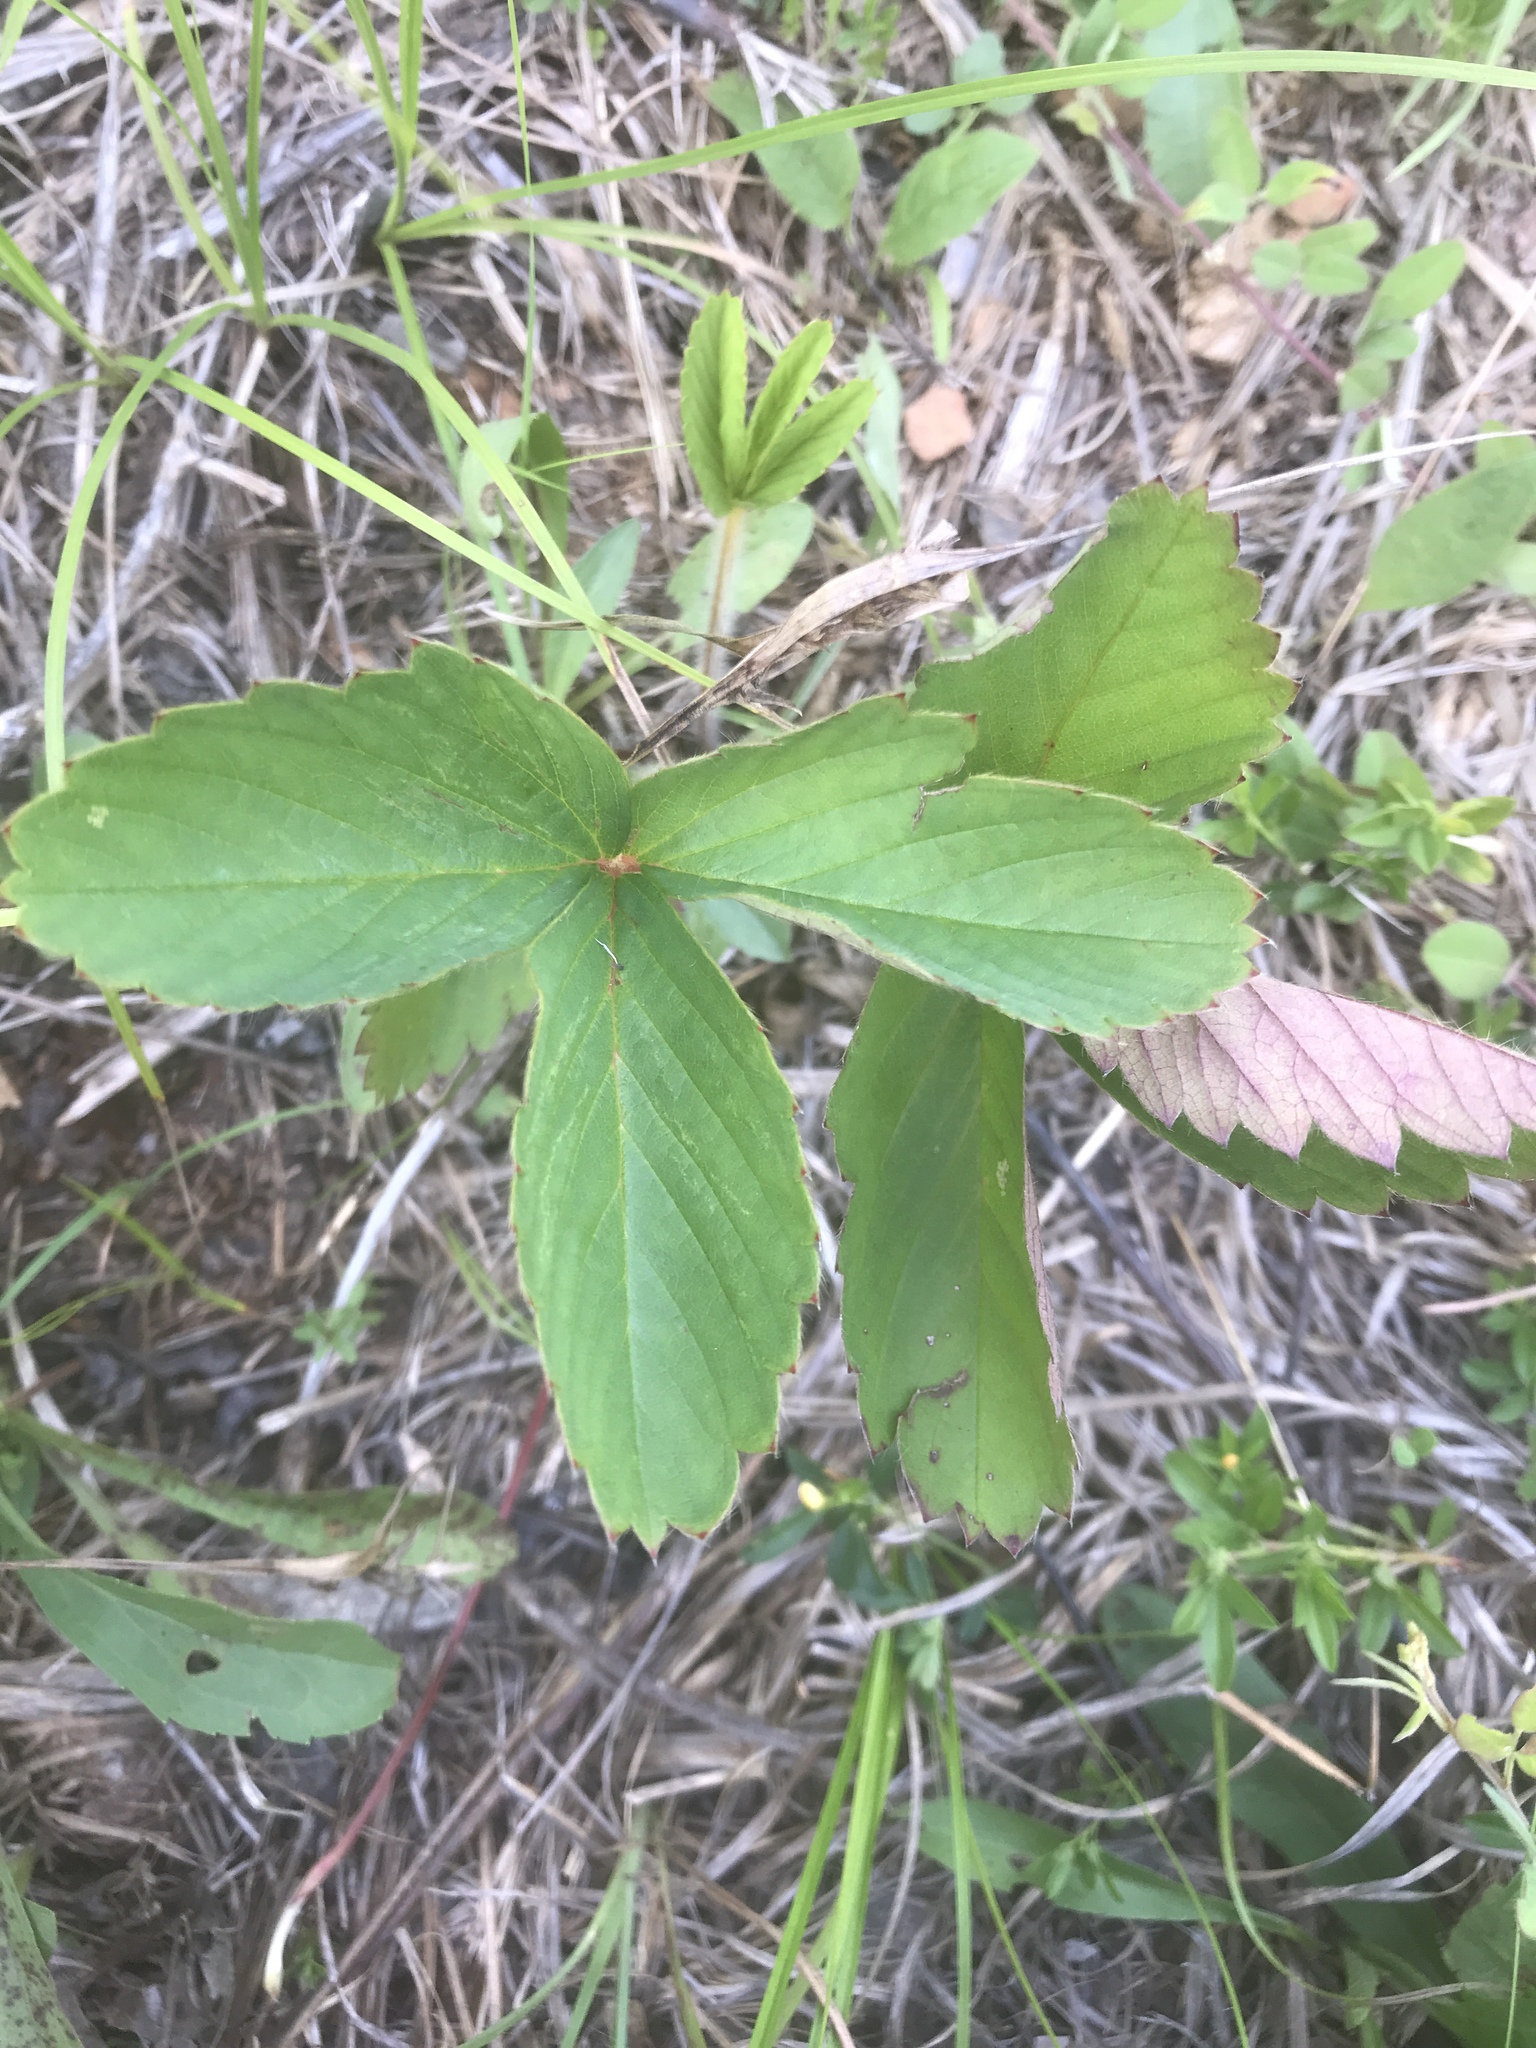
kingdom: Plantae
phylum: Tracheophyta
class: Magnoliopsida
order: Rosales
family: Rosaceae
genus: Fragaria
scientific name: Fragaria virginiana
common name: Thickleaved wild strawberry
